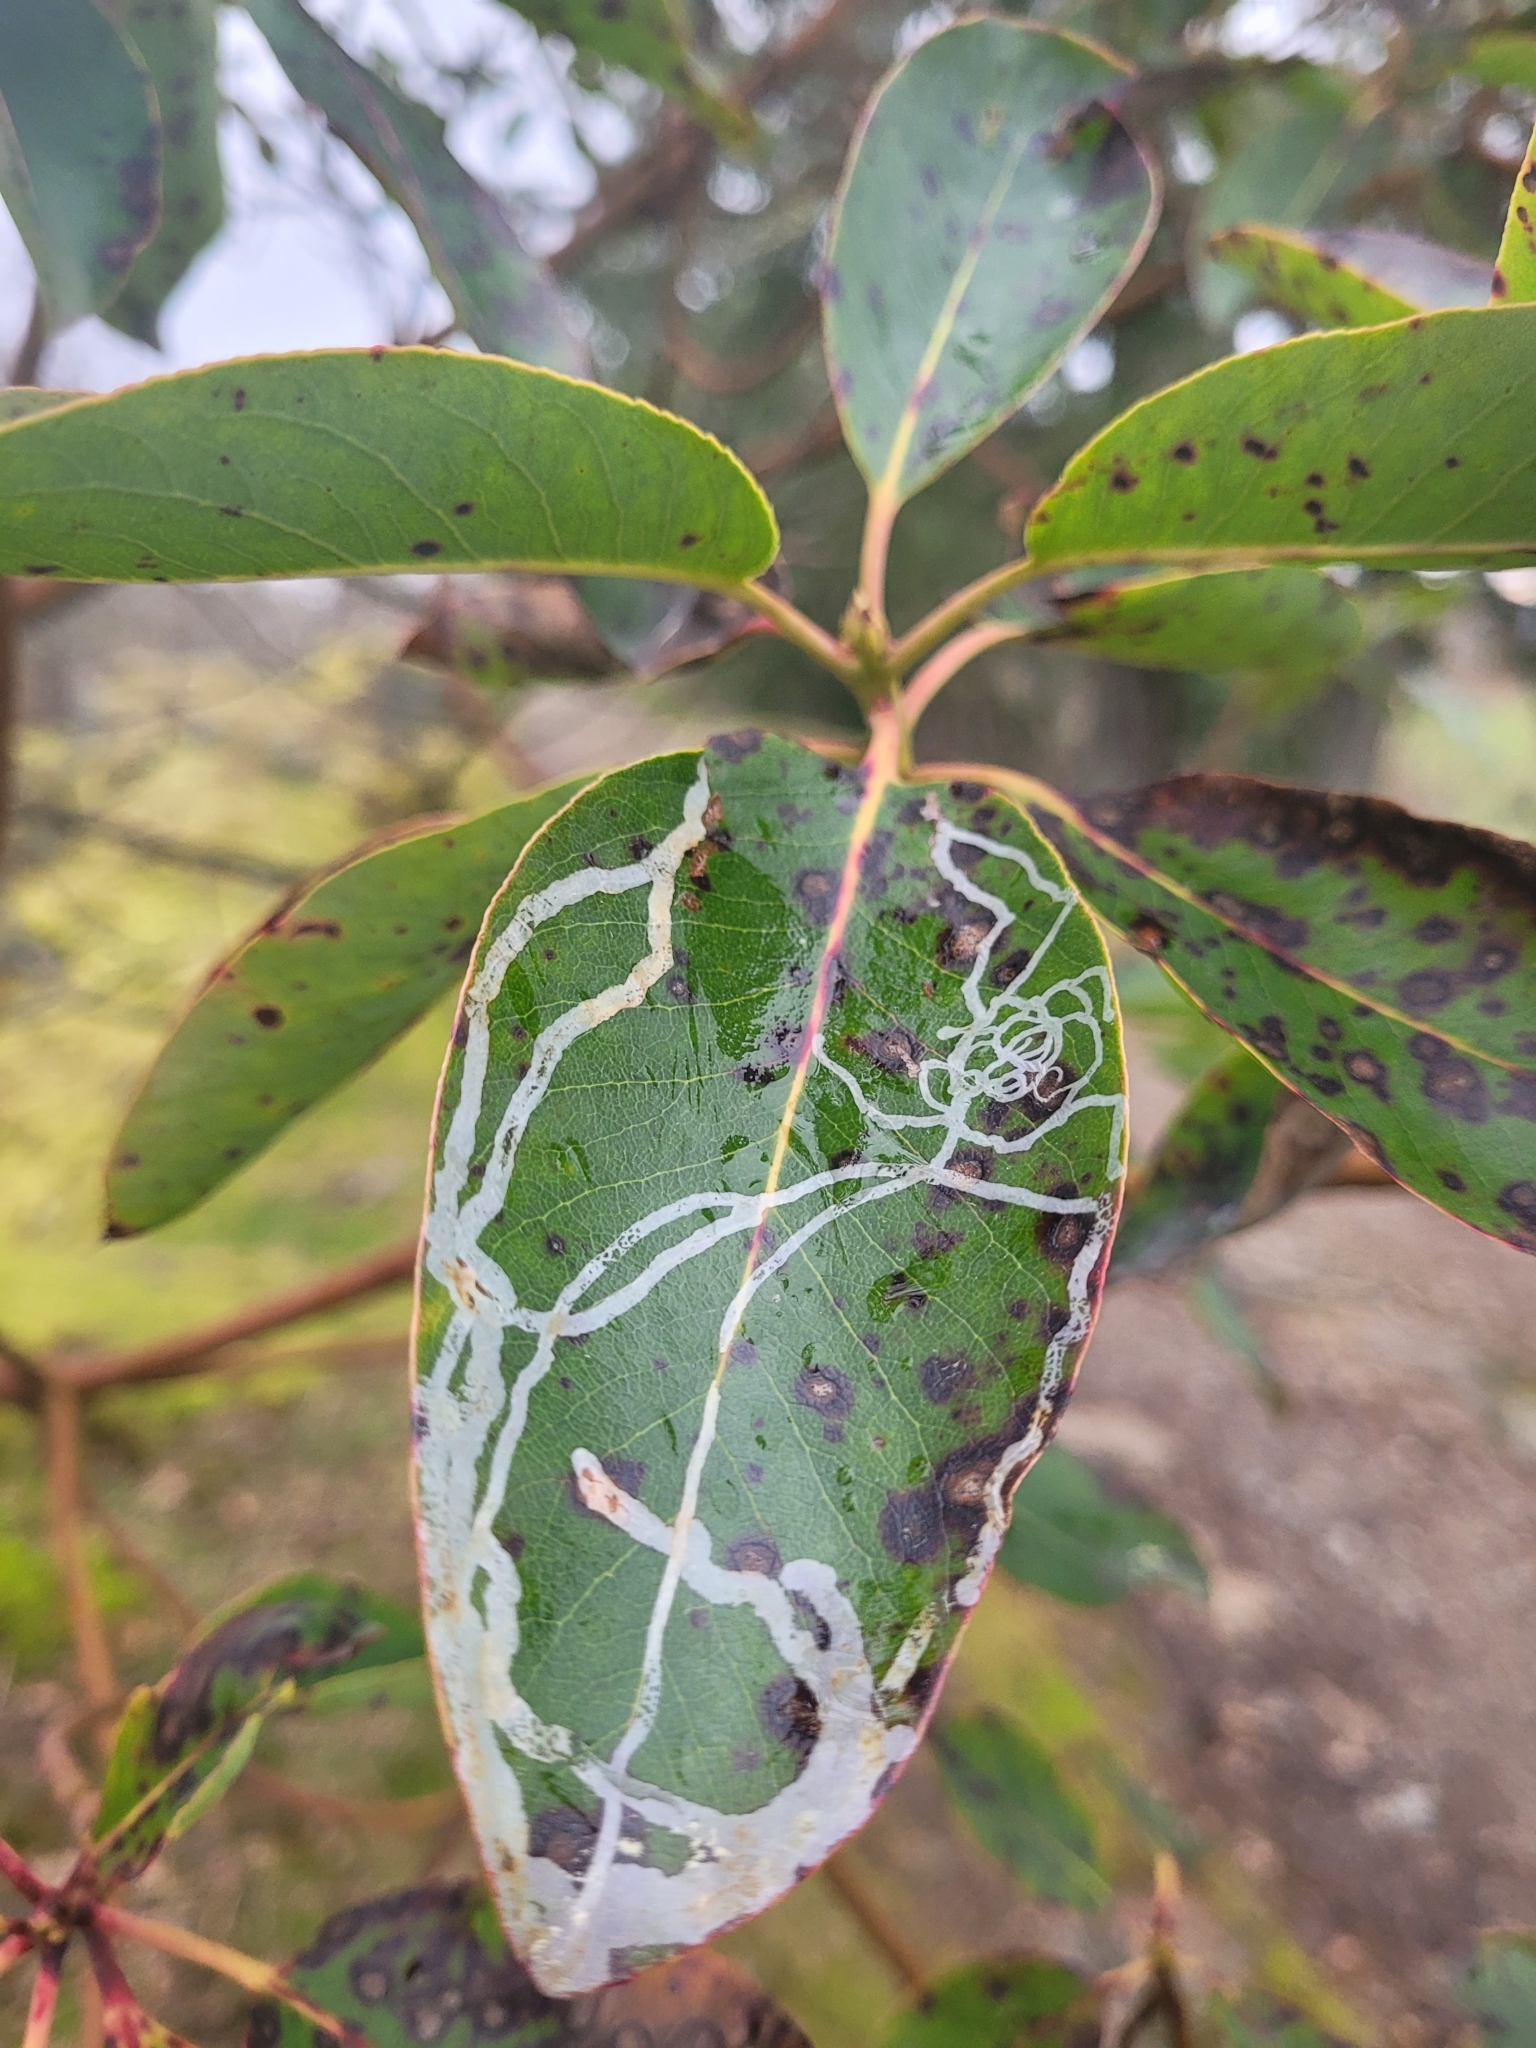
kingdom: Animalia
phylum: Arthropoda
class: Insecta
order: Lepidoptera
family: Gracillariidae
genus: Marmara
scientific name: Marmara arbutiella
